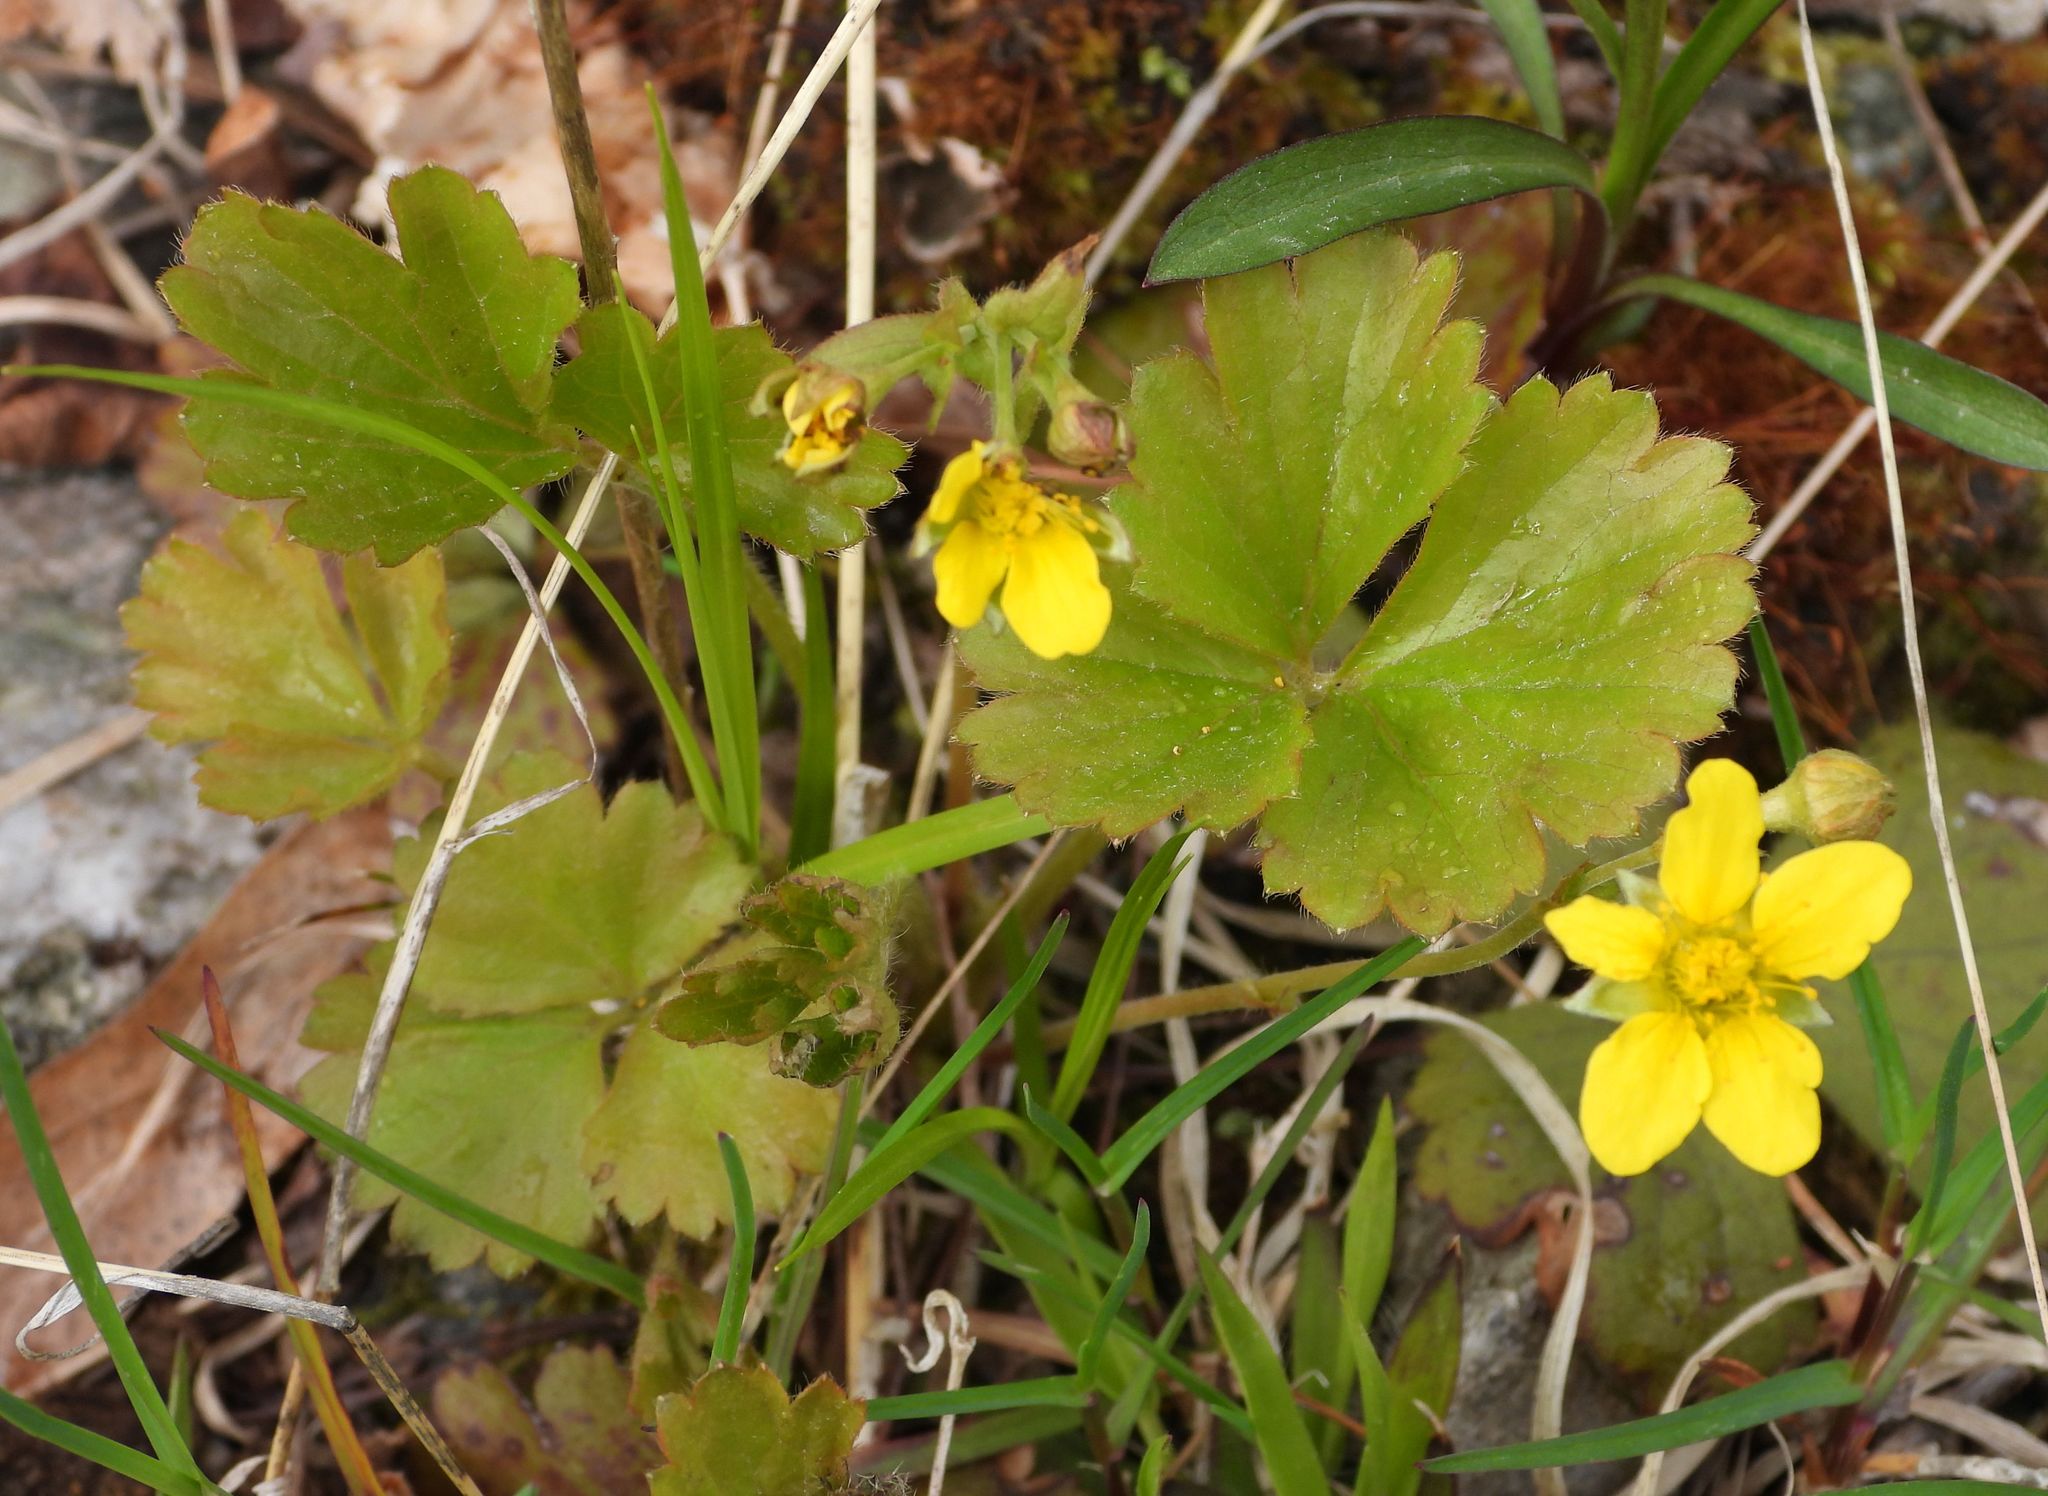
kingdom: Plantae
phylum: Tracheophyta
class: Magnoliopsida
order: Rosales
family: Rosaceae
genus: Geum
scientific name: Geum fragarioides
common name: Appalachian barren strawberry
